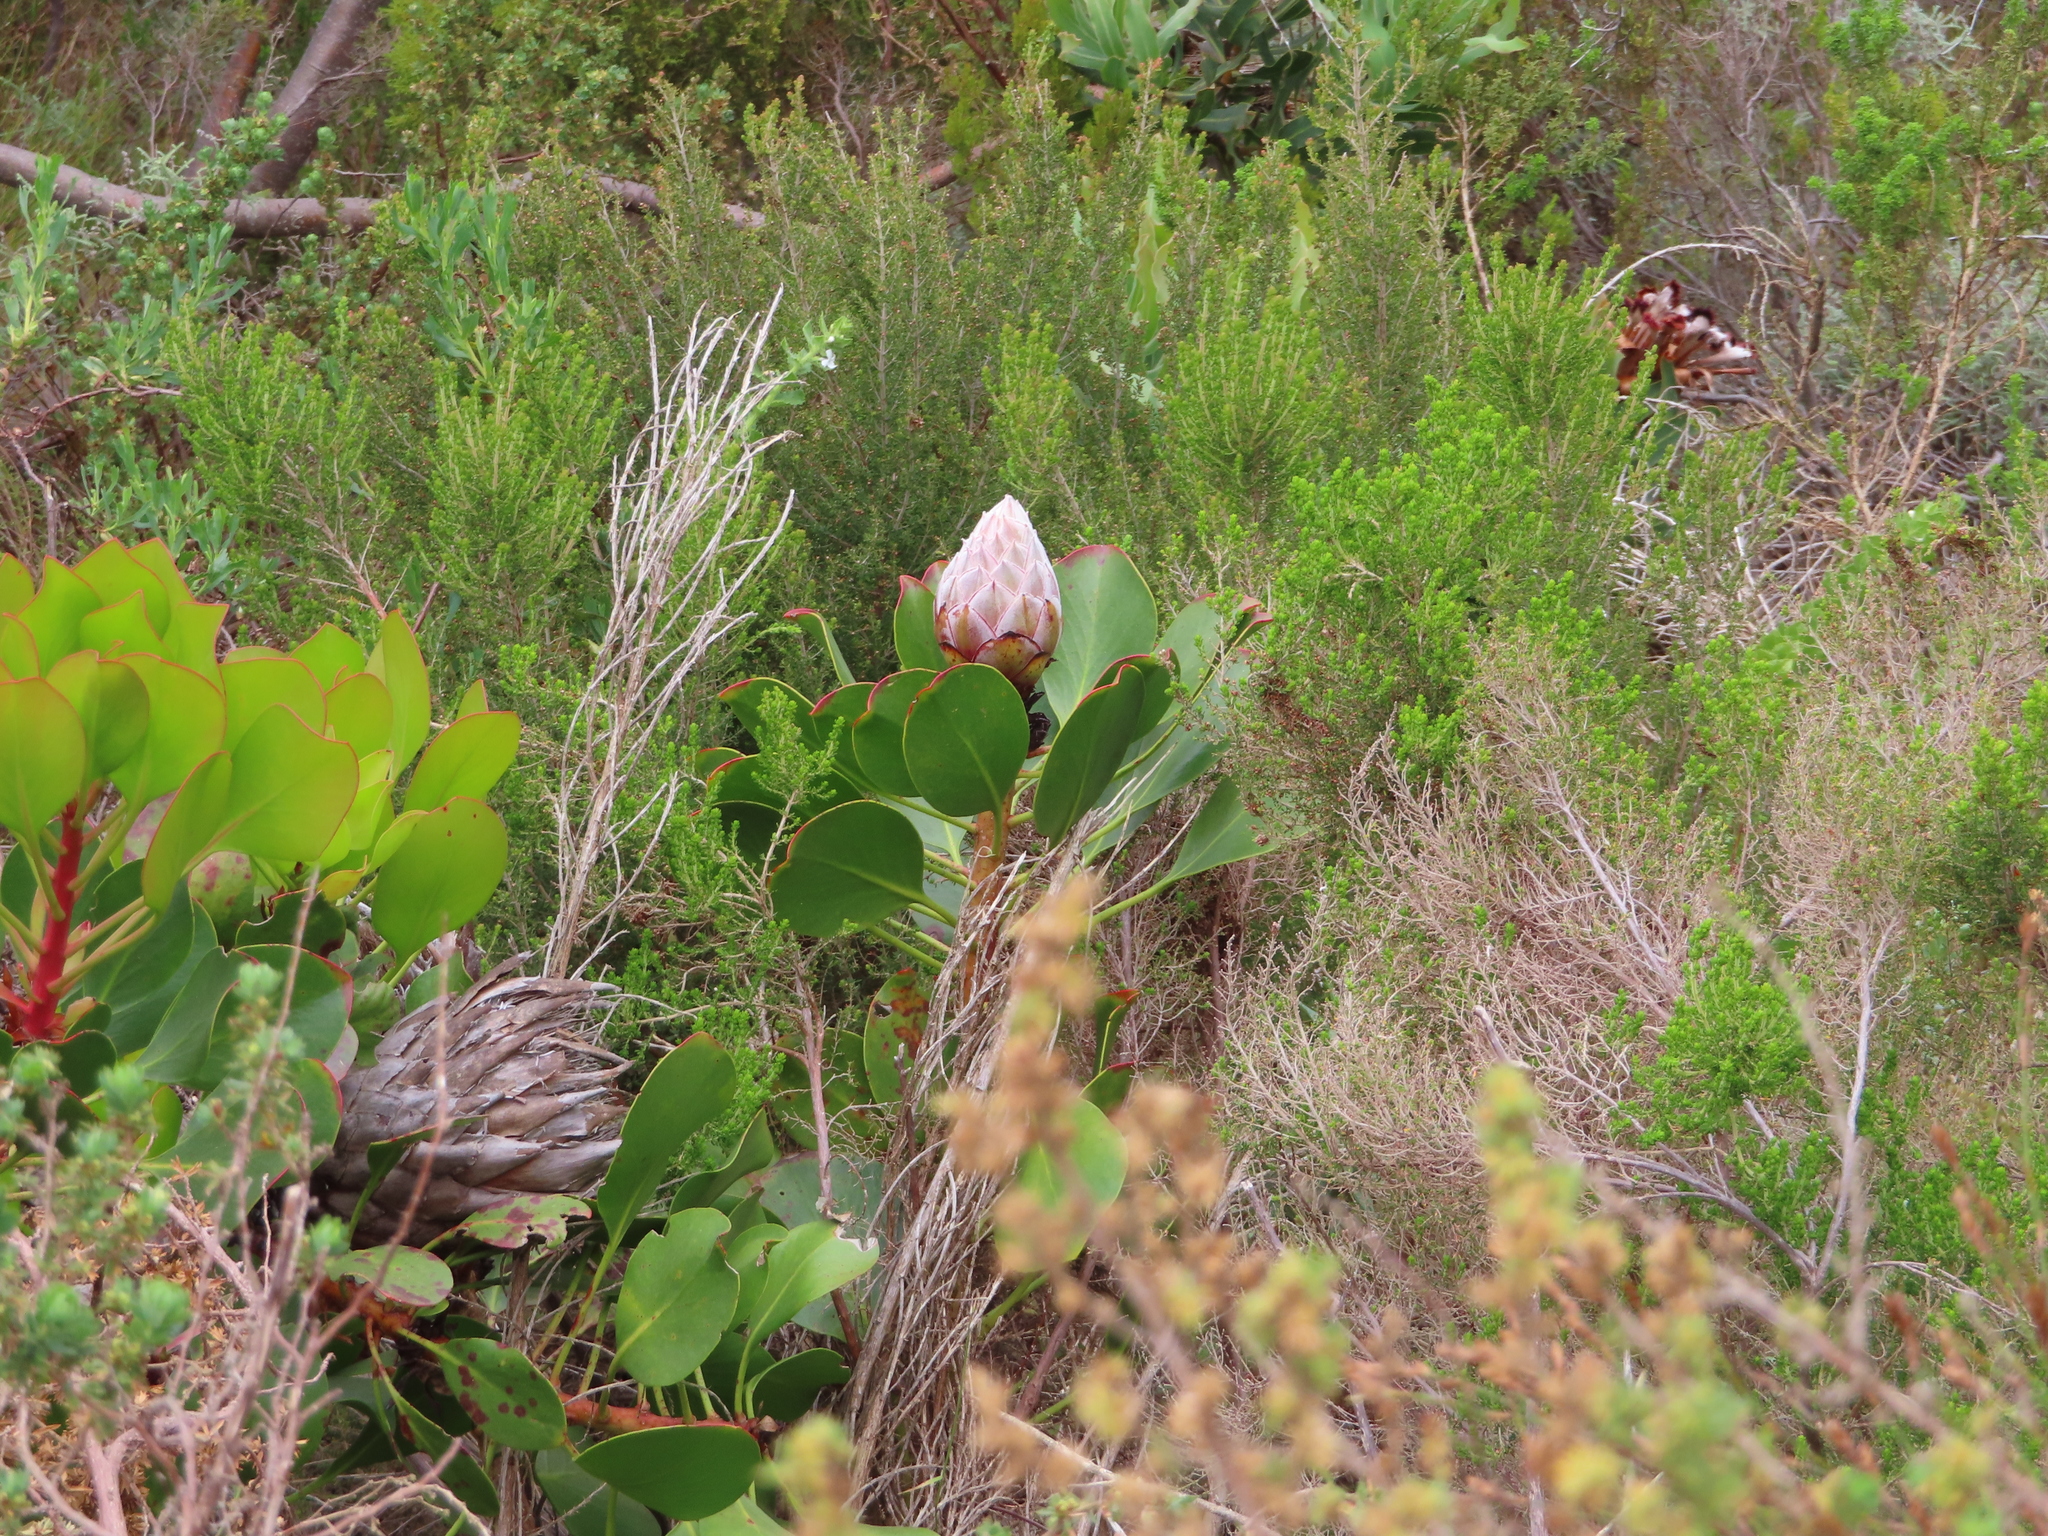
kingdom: Plantae
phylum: Tracheophyta
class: Magnoliopsida
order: Proteales
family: Proteaceae
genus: Protea
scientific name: Protea cynaroides
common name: King protea
